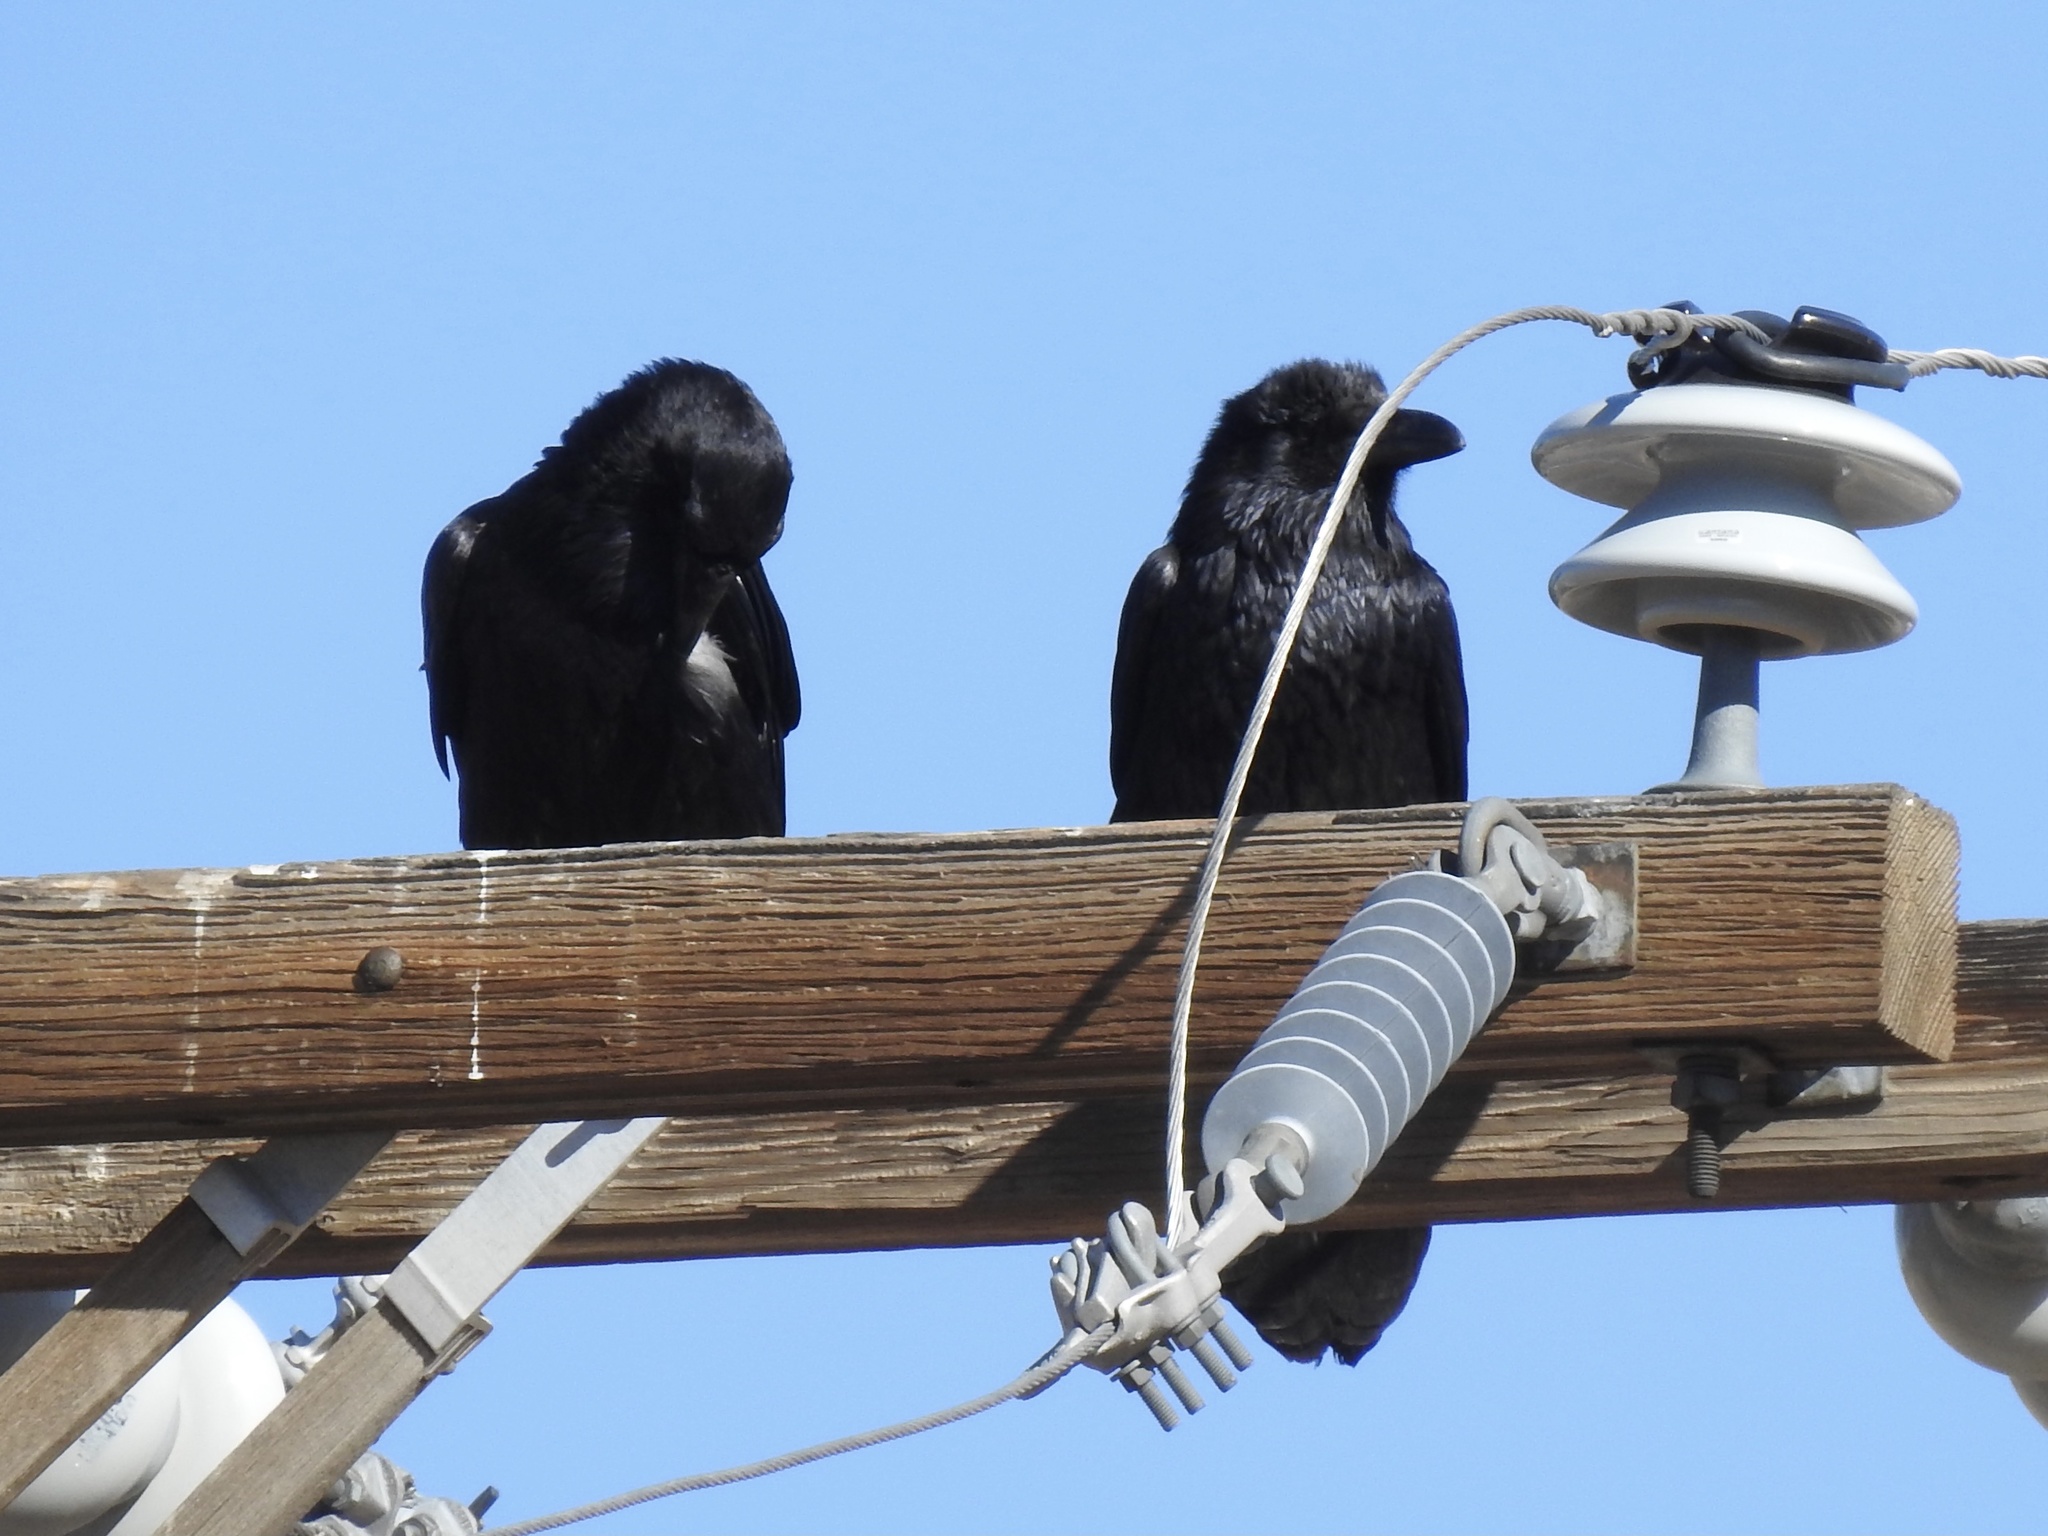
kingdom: Animalia
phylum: Chordata
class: Aves
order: Passeriformes
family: Corvidae
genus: Corvus
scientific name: Corvus corax
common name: Common raven
